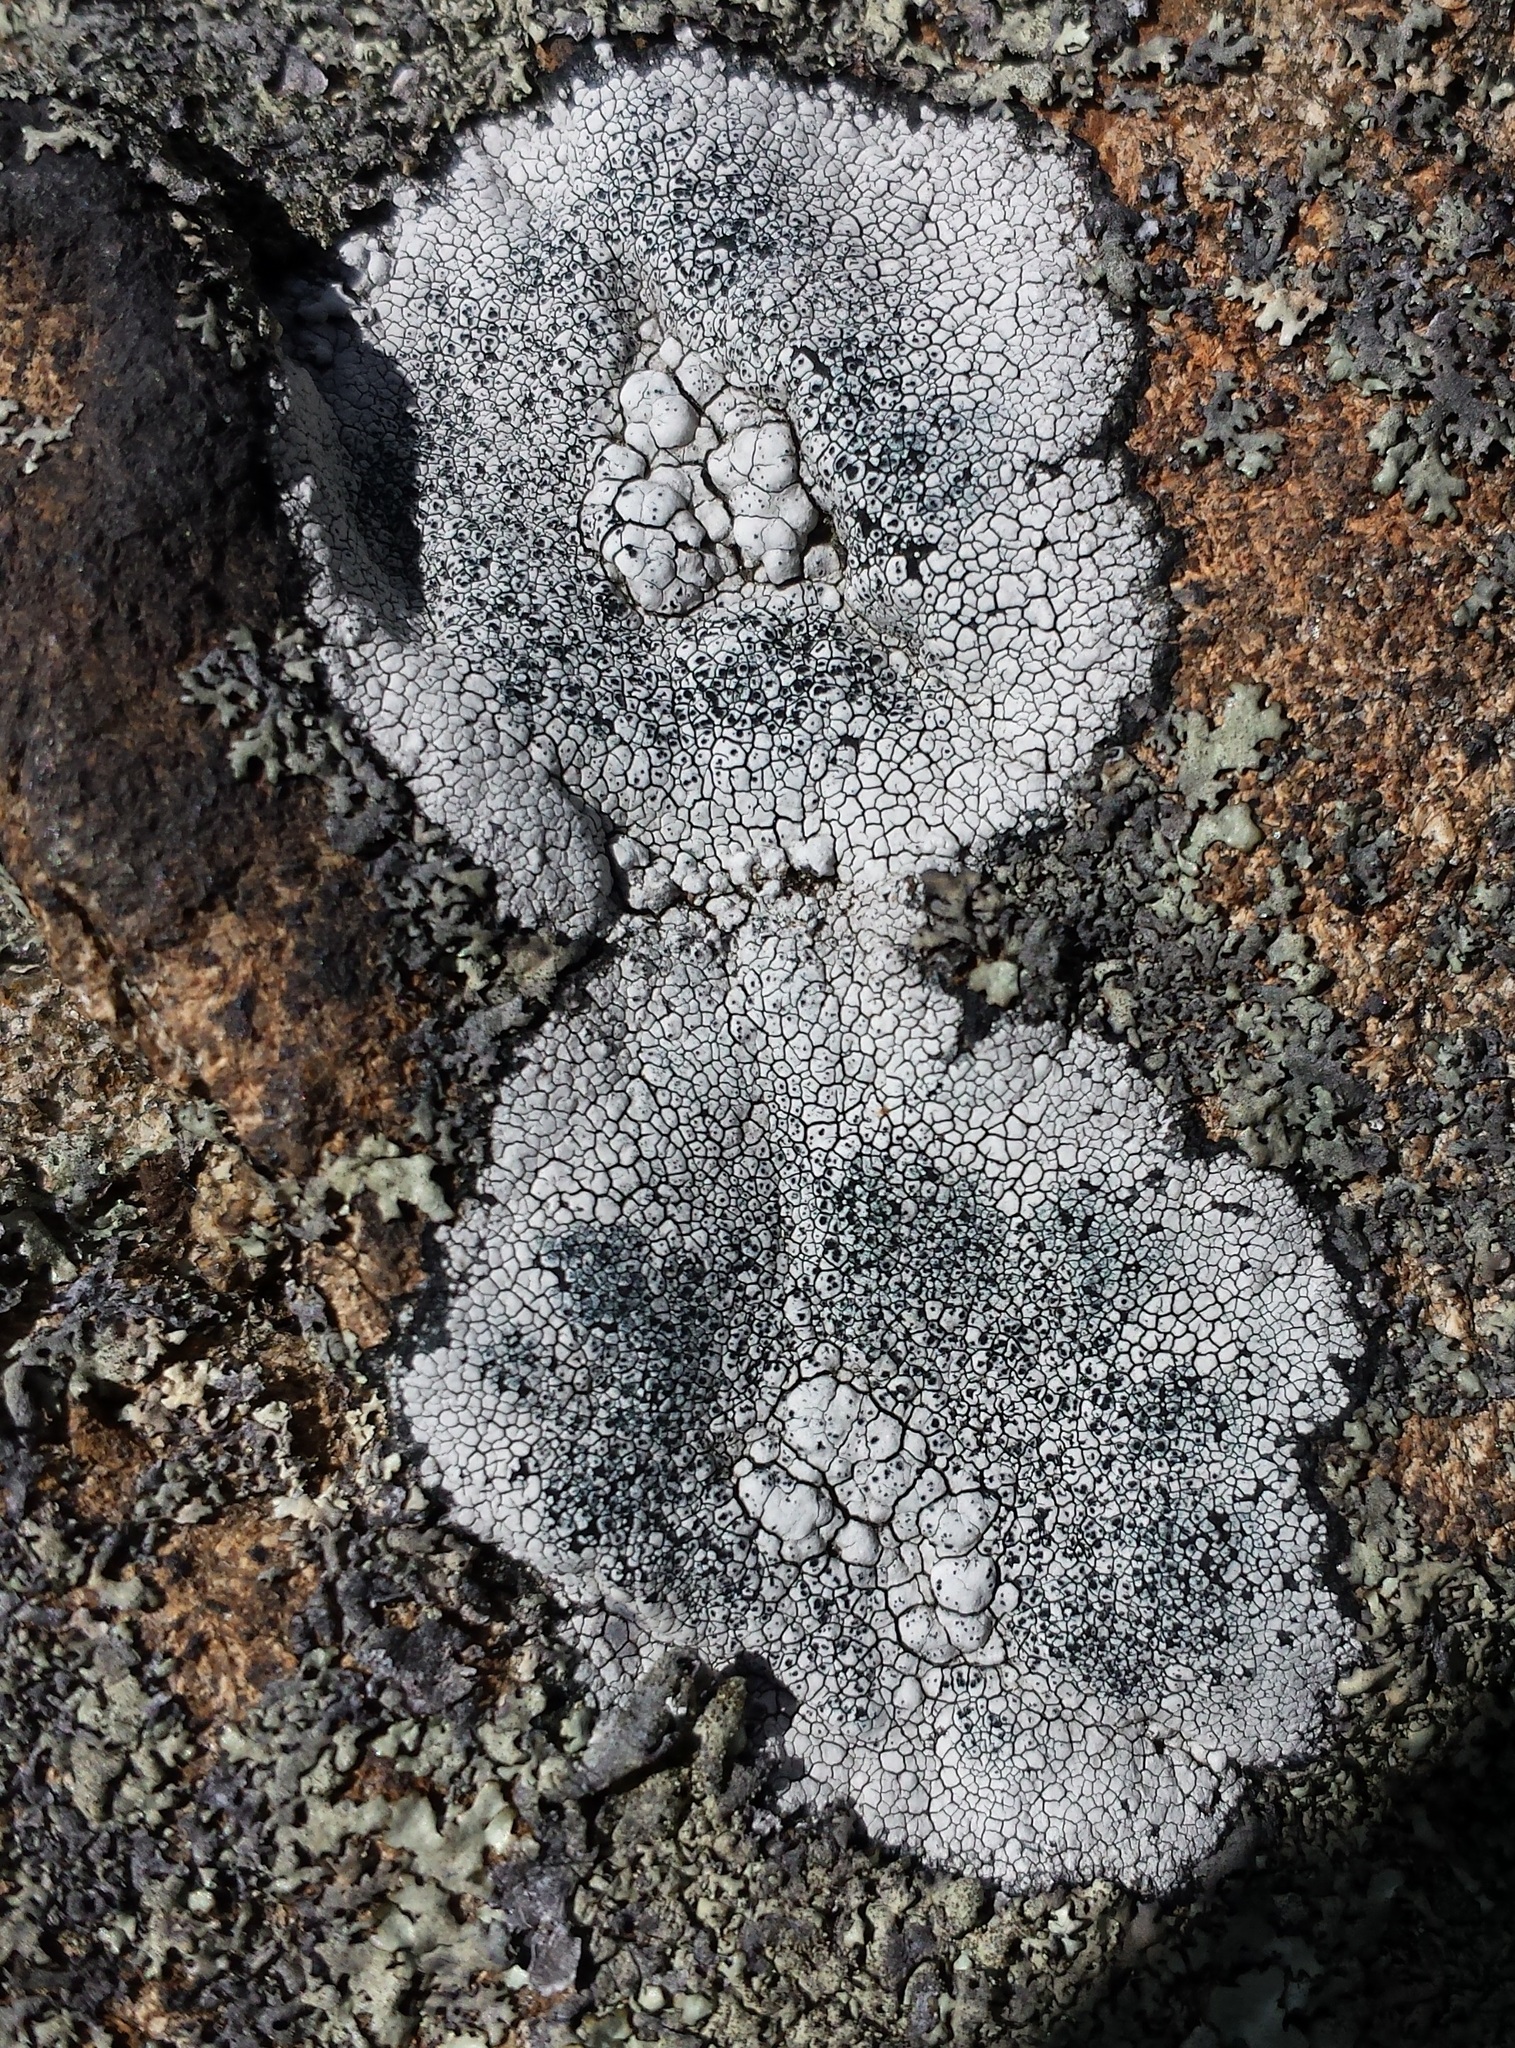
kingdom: Fungi
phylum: Ascomycota
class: Lecanoromycetes
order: Lecanorales
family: Lecanoraceae
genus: Lecanora
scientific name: Lecanora oreinoides
